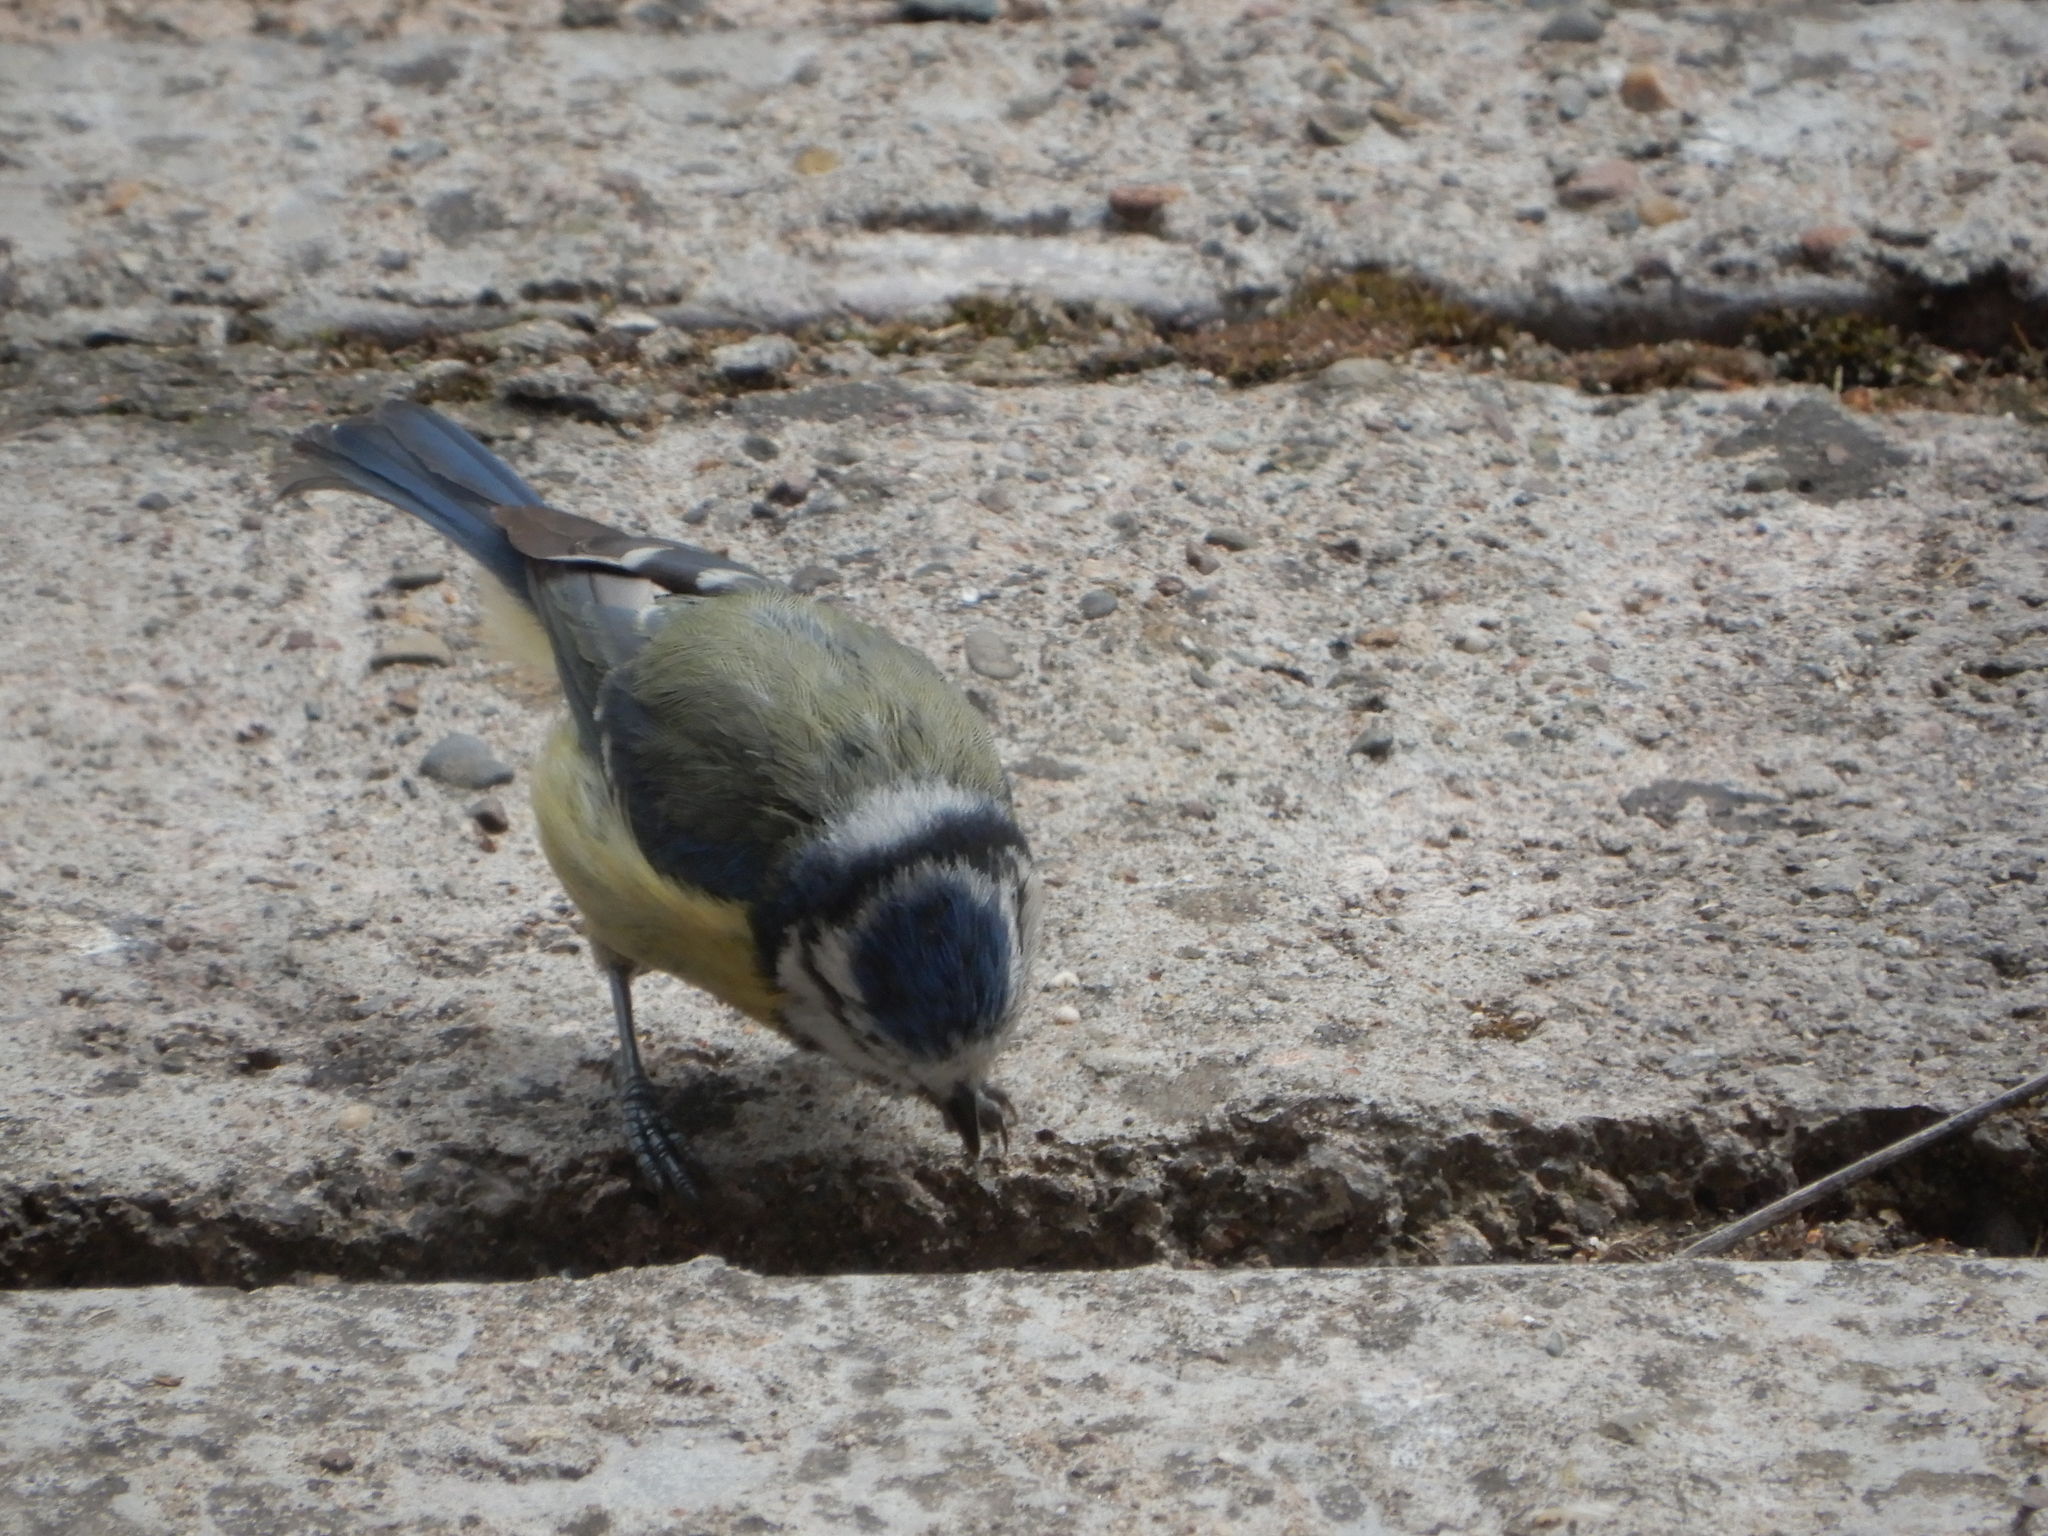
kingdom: Animalia
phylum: Chordata
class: Aves
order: Passeriformes
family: Paridae
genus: Cyanistes
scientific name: Cyanistes caeruleus
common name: Eurasian blue tit
